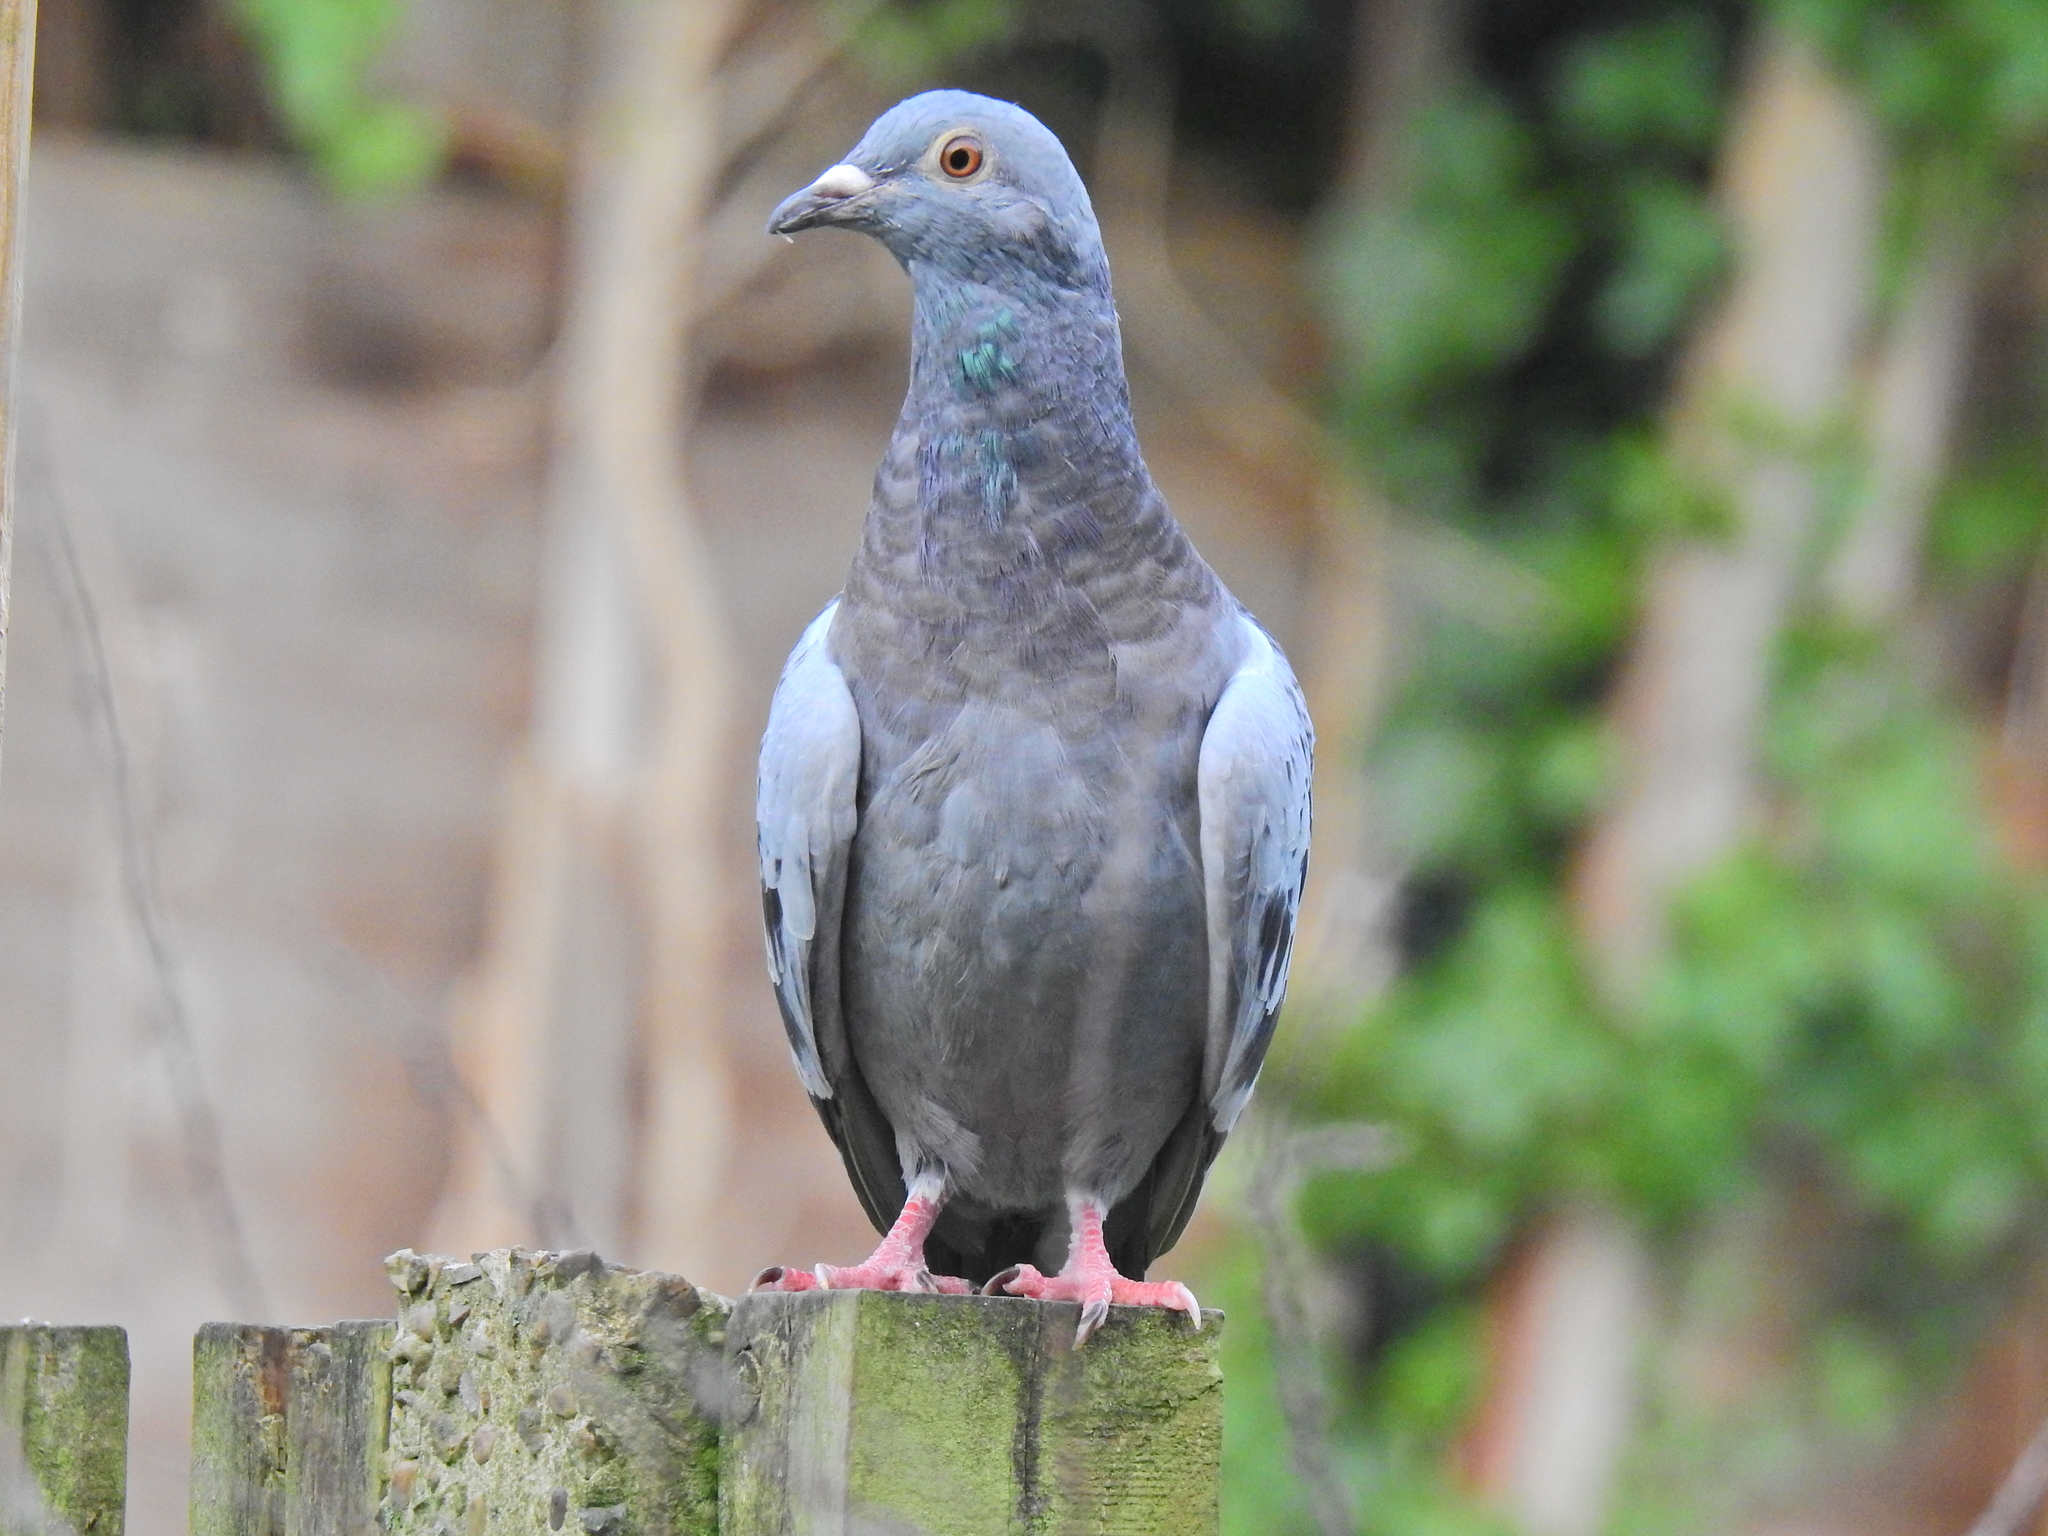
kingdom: Animalia
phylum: Chordata
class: Aves
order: Columbiformes
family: Columbidae
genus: Columba
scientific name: Columba livia
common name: Rock pigeon
